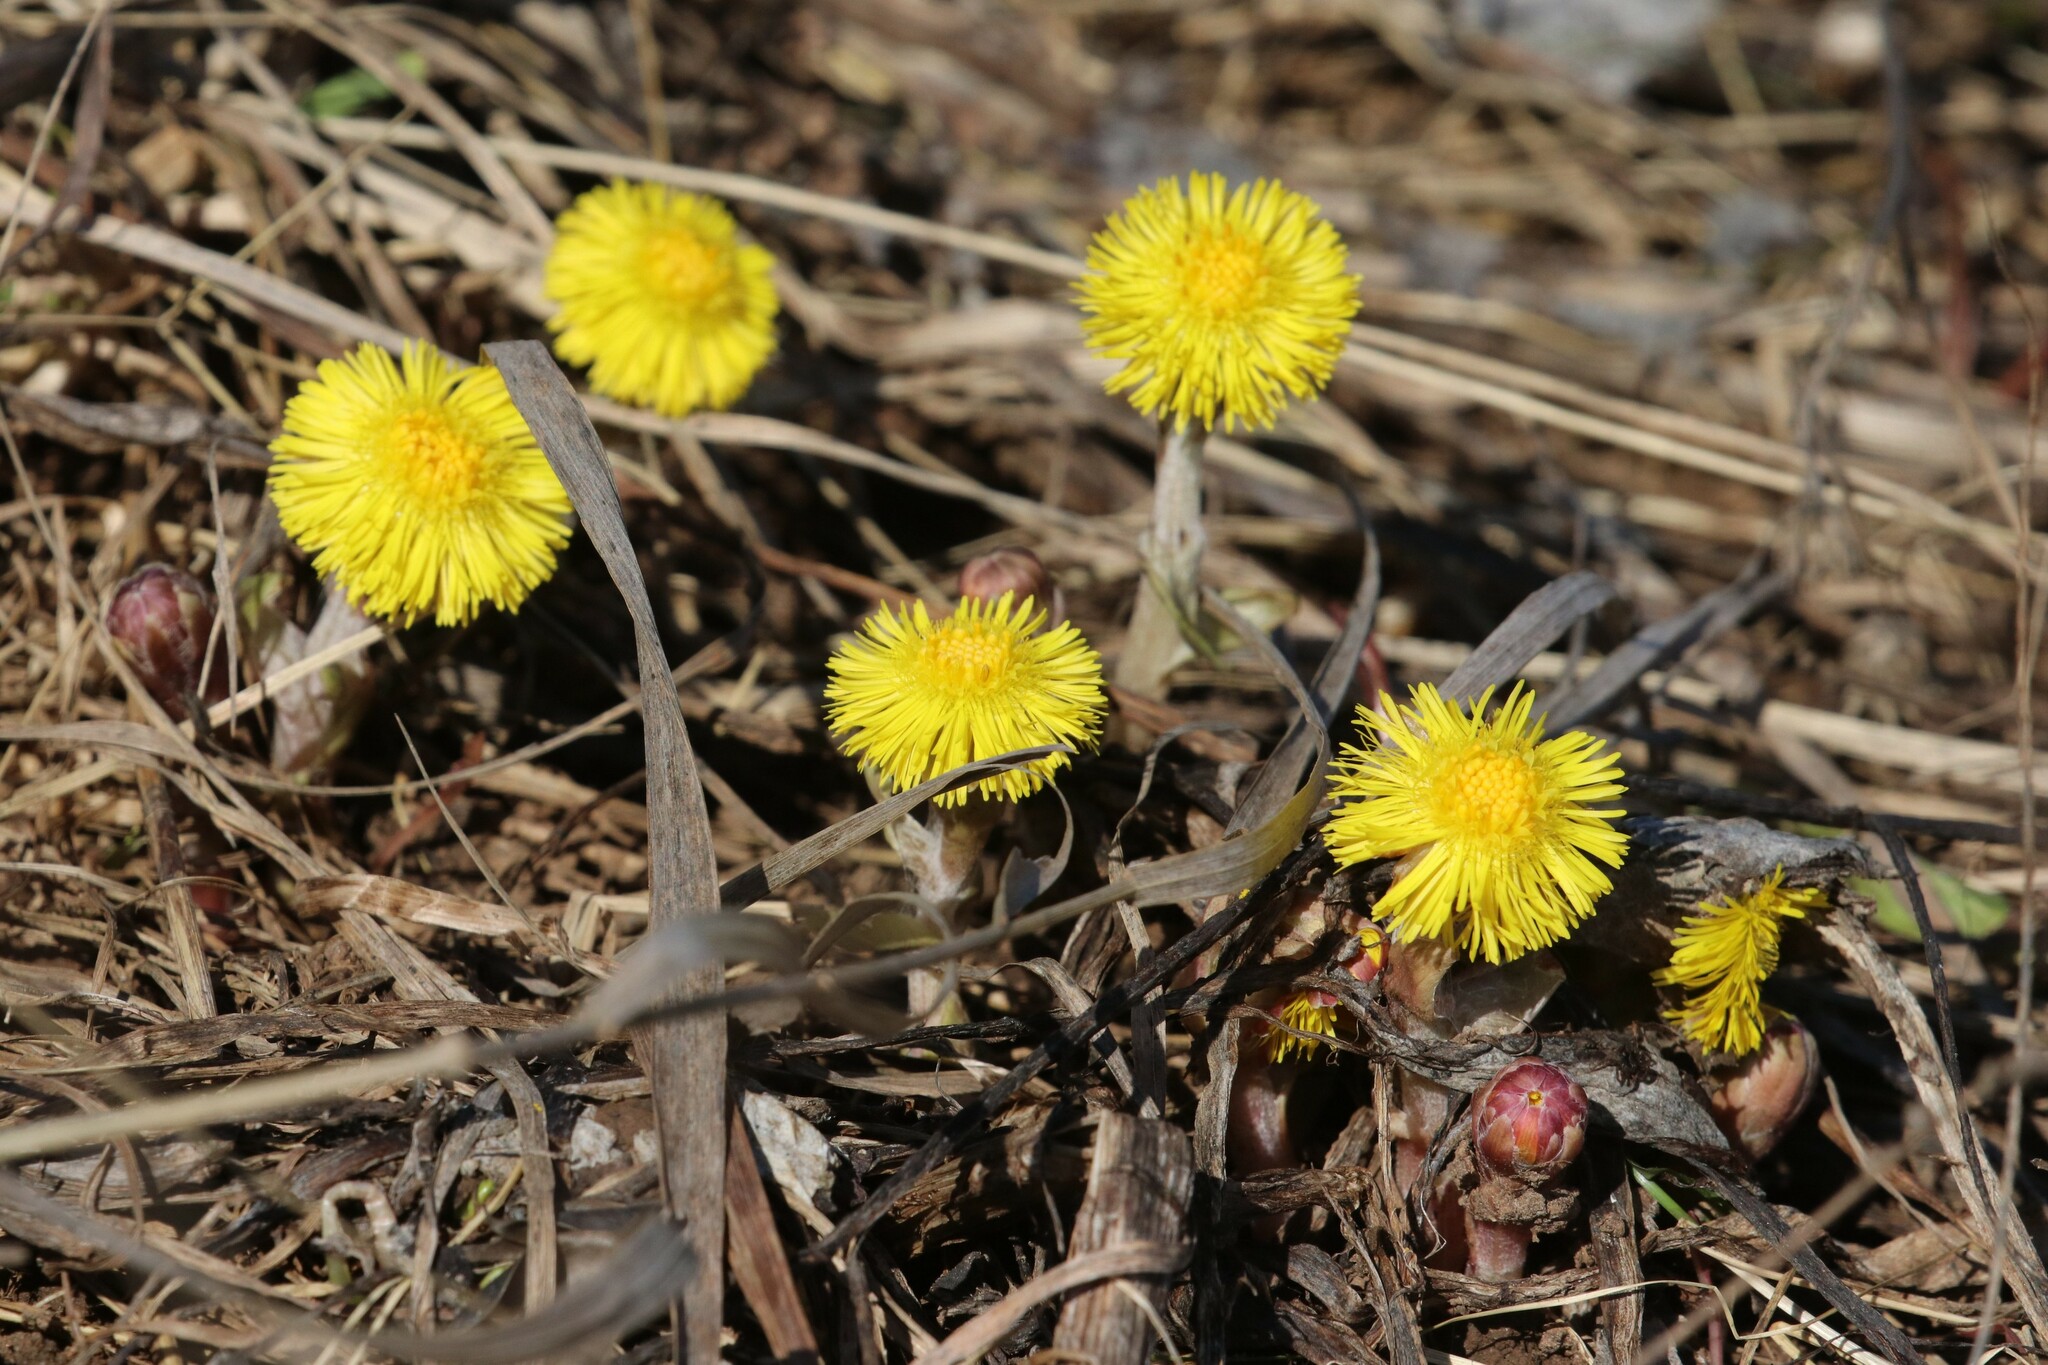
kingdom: Plantae
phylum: Tracheophyta
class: Magnoliopsida
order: Asterales
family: Asteraceae
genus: Tussilago
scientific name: Tussilago farfara
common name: Coltsfoot
